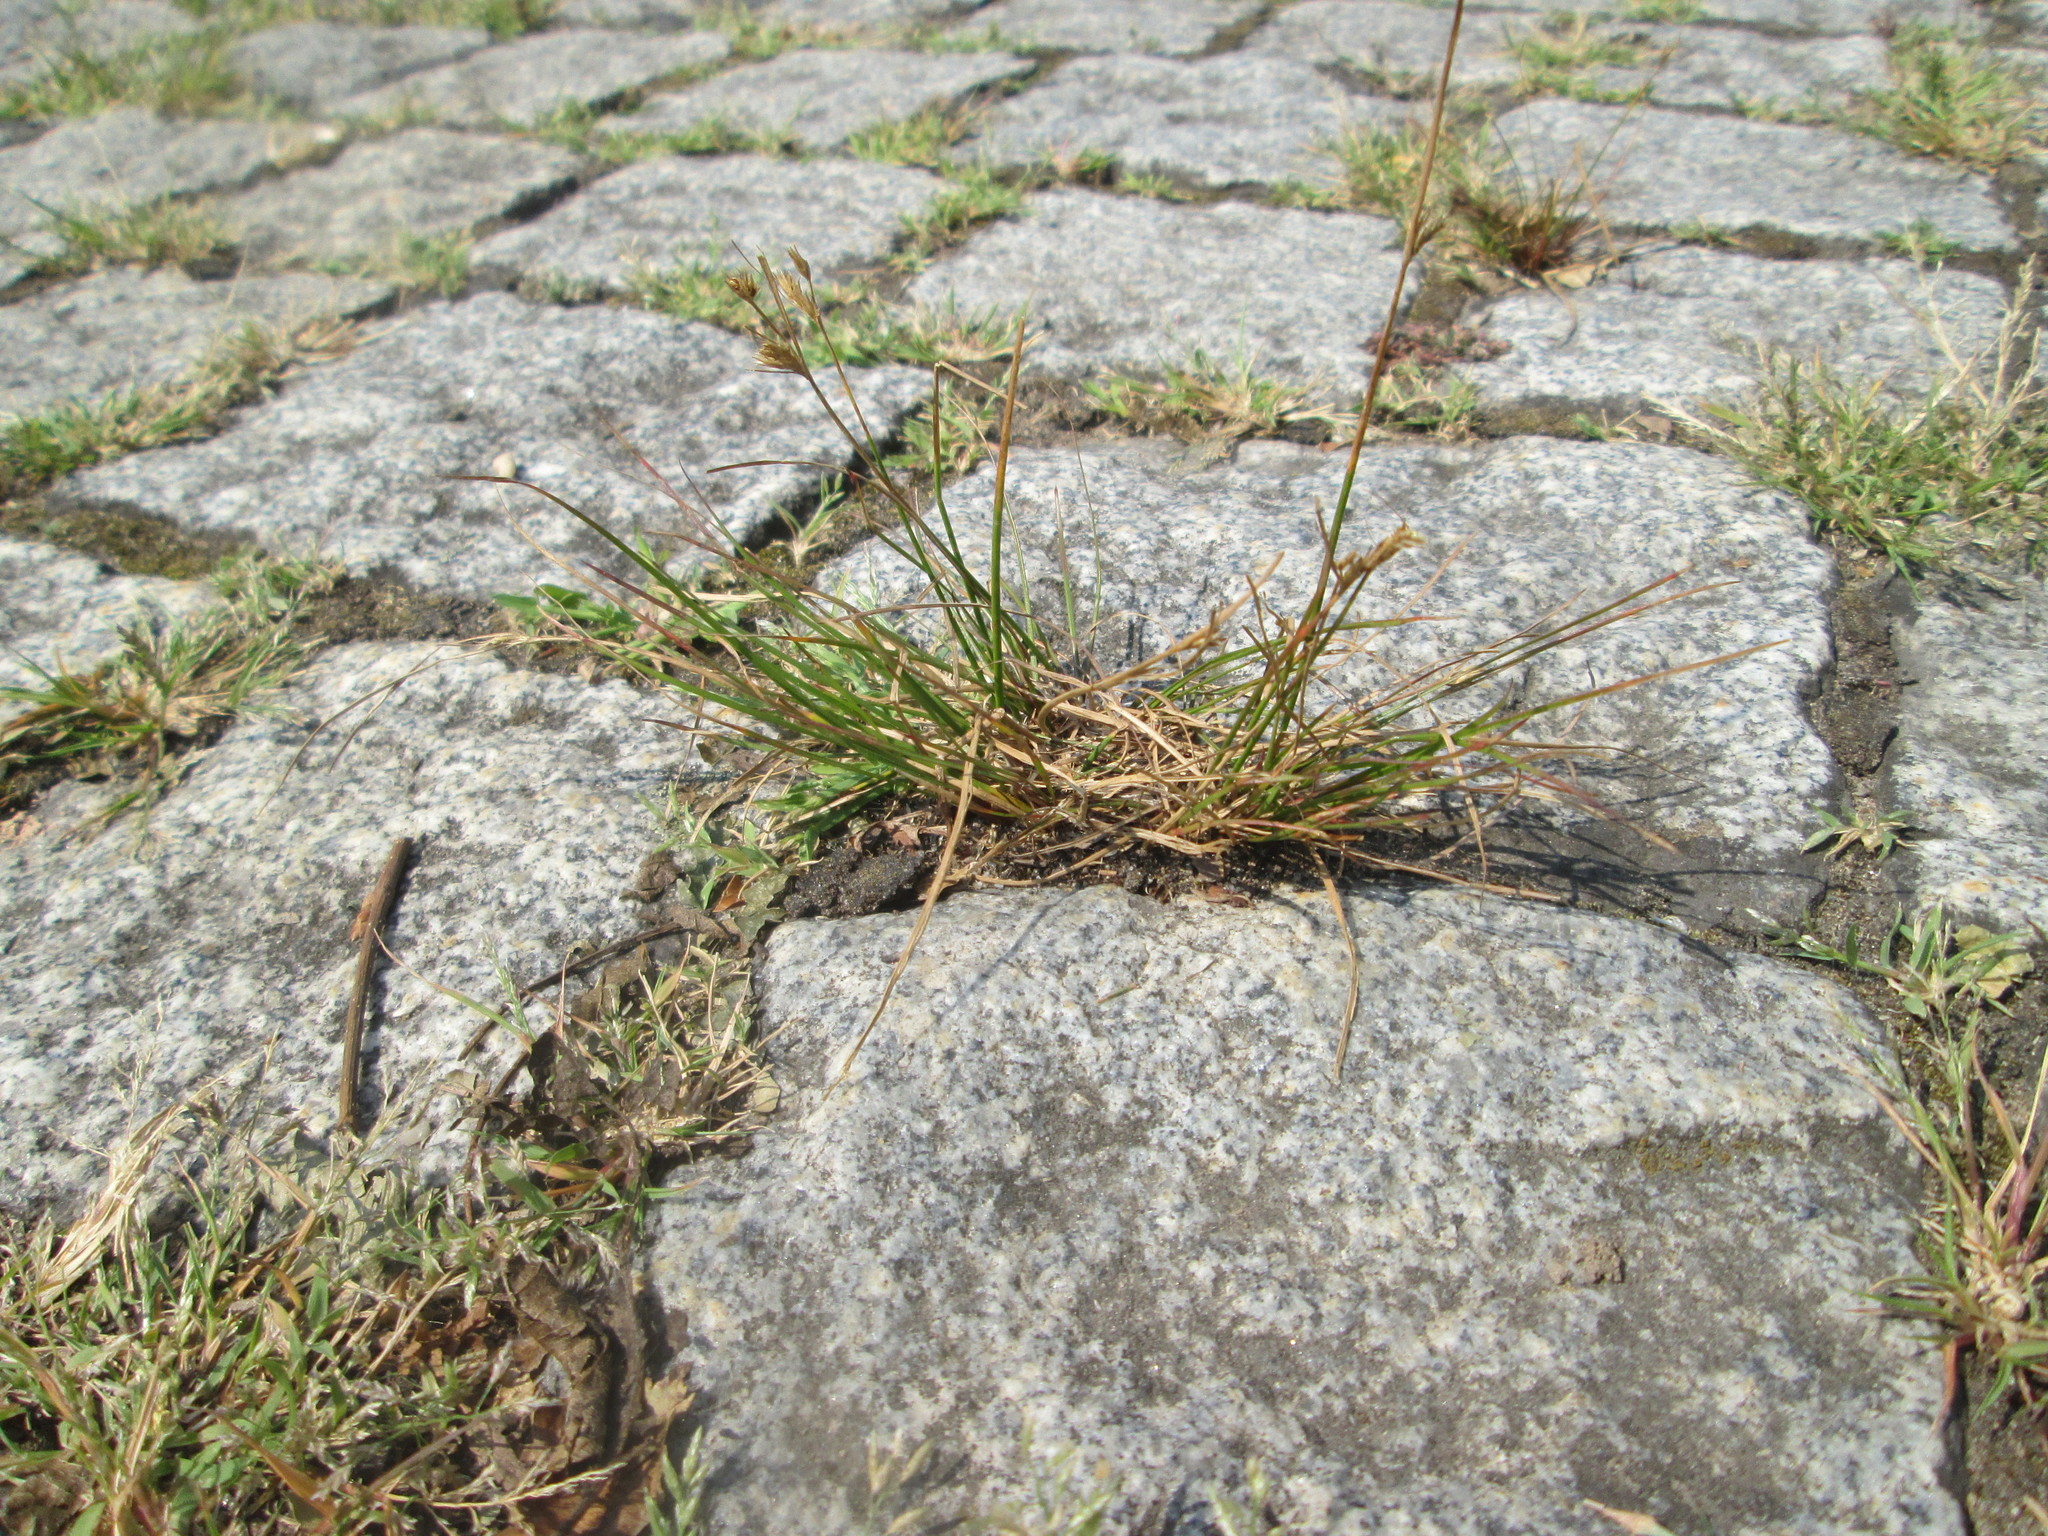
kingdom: Plantae
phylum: Tracheophyta
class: Liliopsida
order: Poales
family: Juncaceae
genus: Juncus
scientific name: Juncus tenuis
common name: Slender rush
